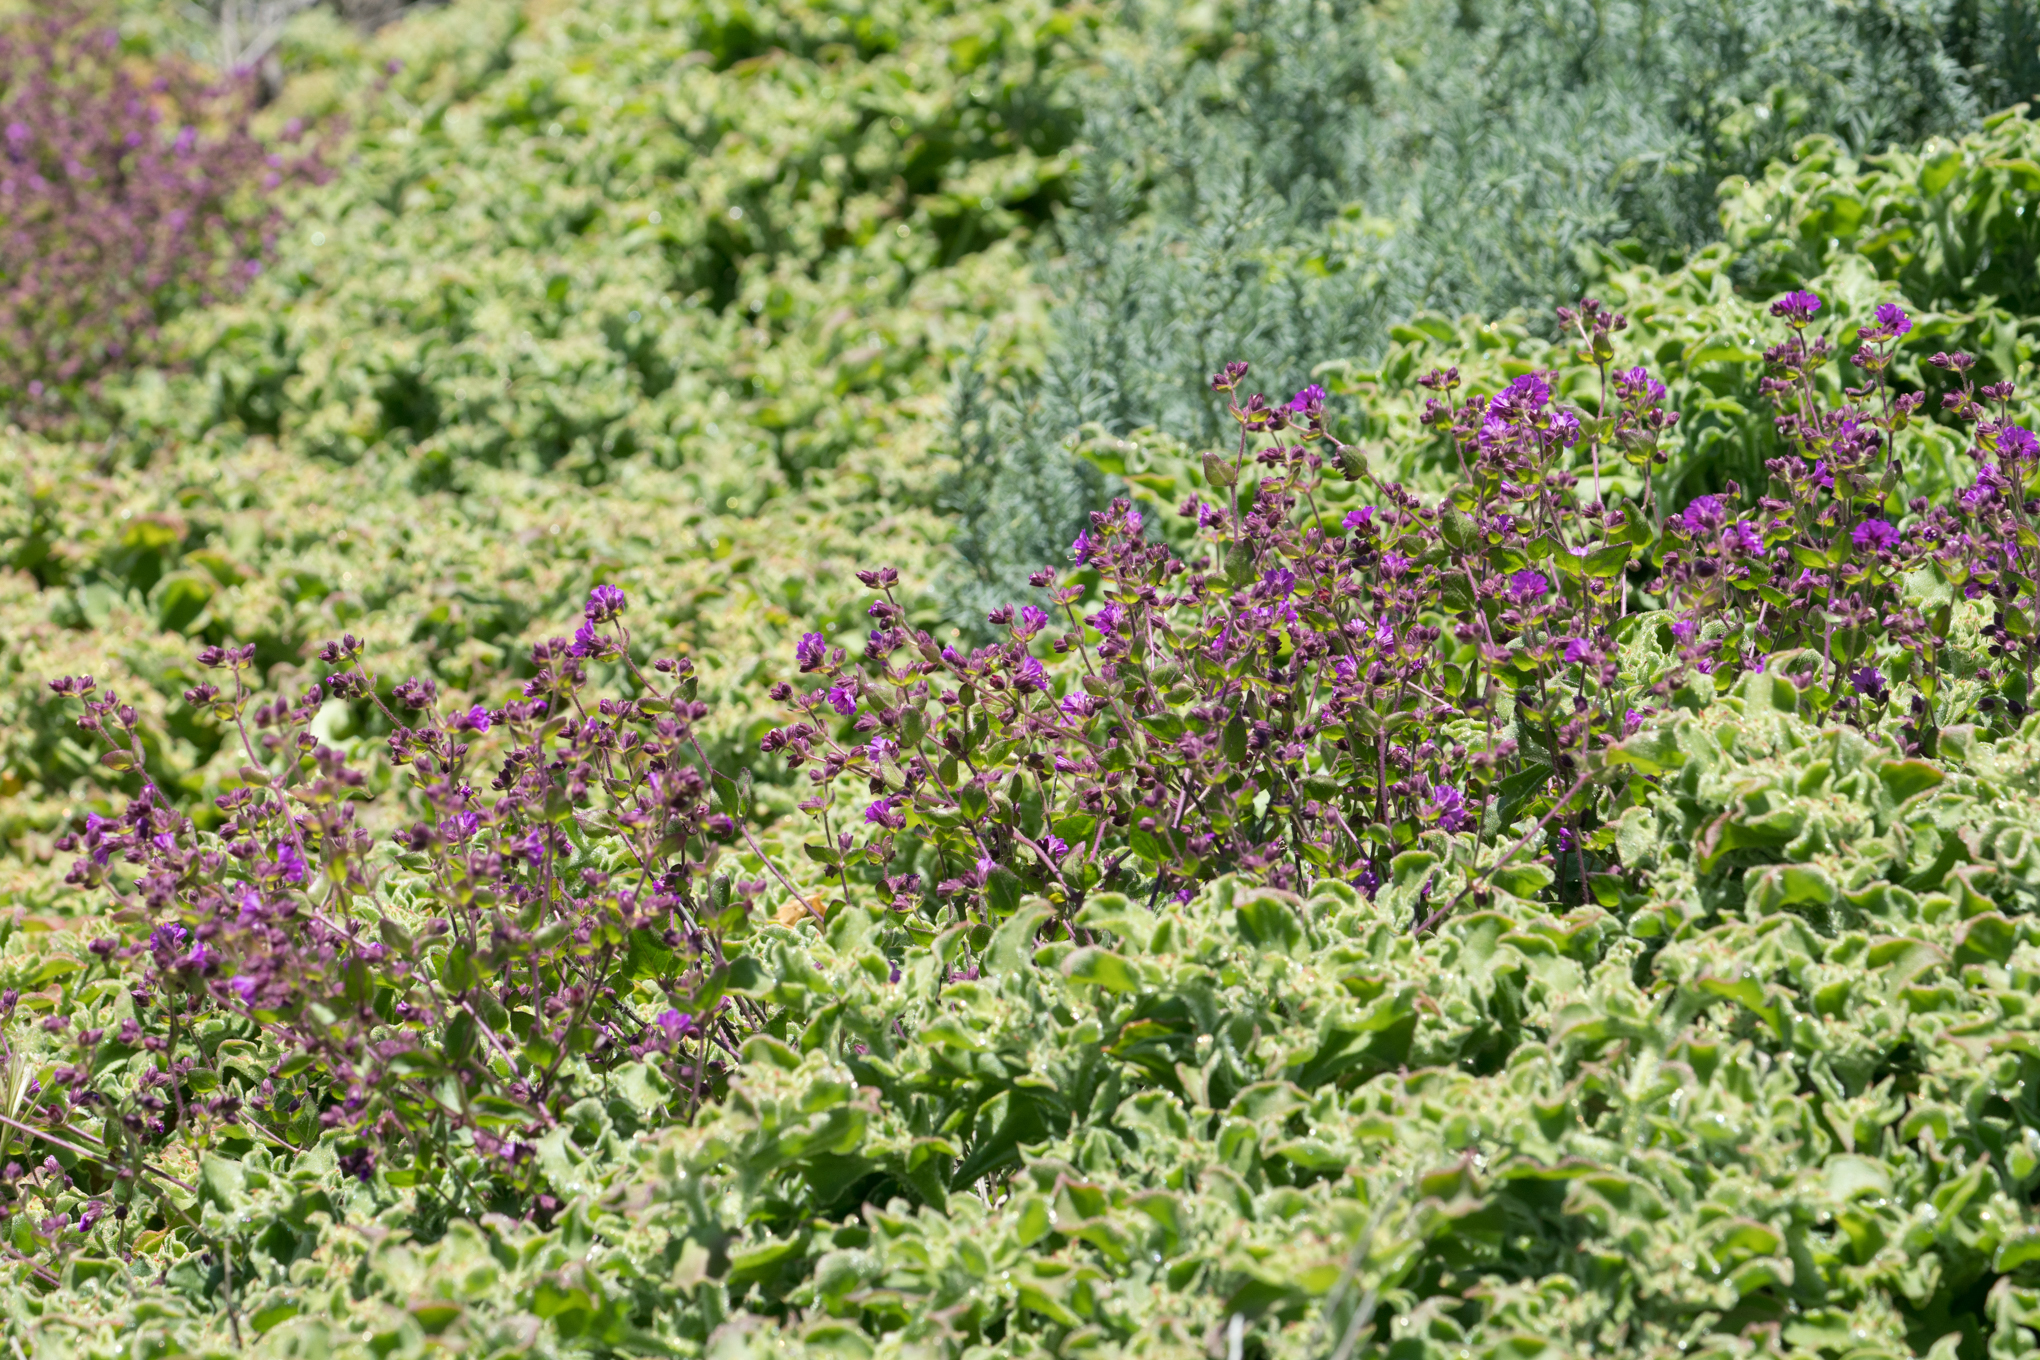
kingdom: Plantae
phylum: Tracheophyta
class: Magnoliopsida
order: Caryophyllales
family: Nyctaginaceae
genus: Mirabilis
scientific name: Mirabilis laevis
